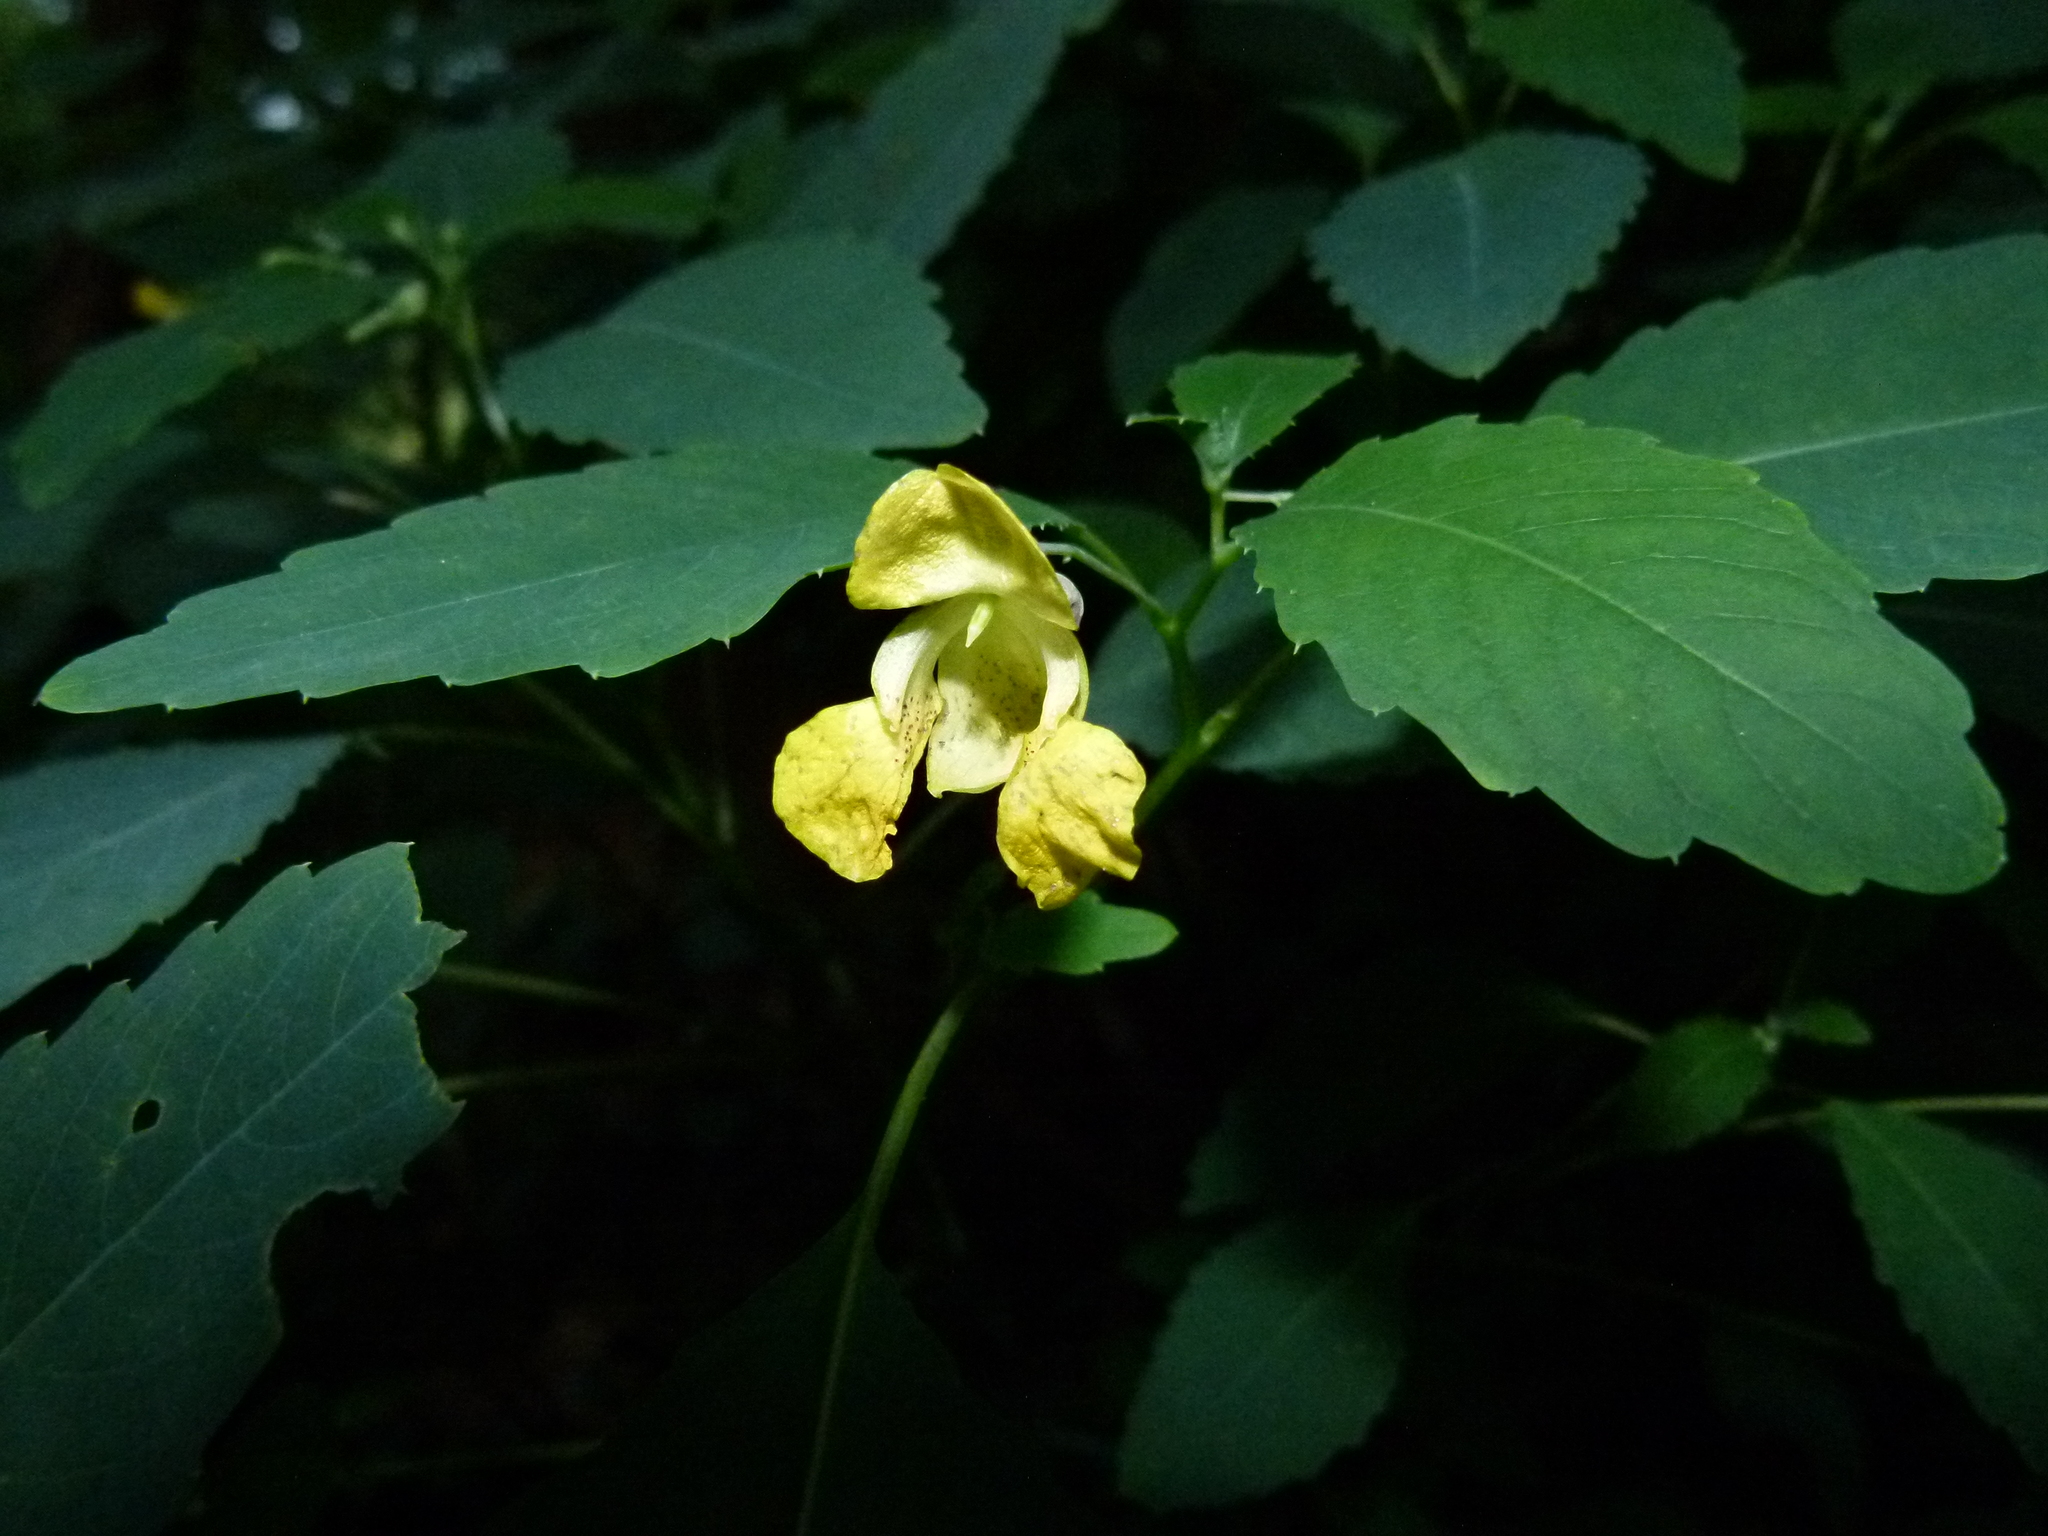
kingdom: Plantae
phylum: Tracheophyta
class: Magnoliopsida
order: Ericales
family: Balsaminaceae
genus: Impatiens
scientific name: Impatiens pallida
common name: Pale snapweed
